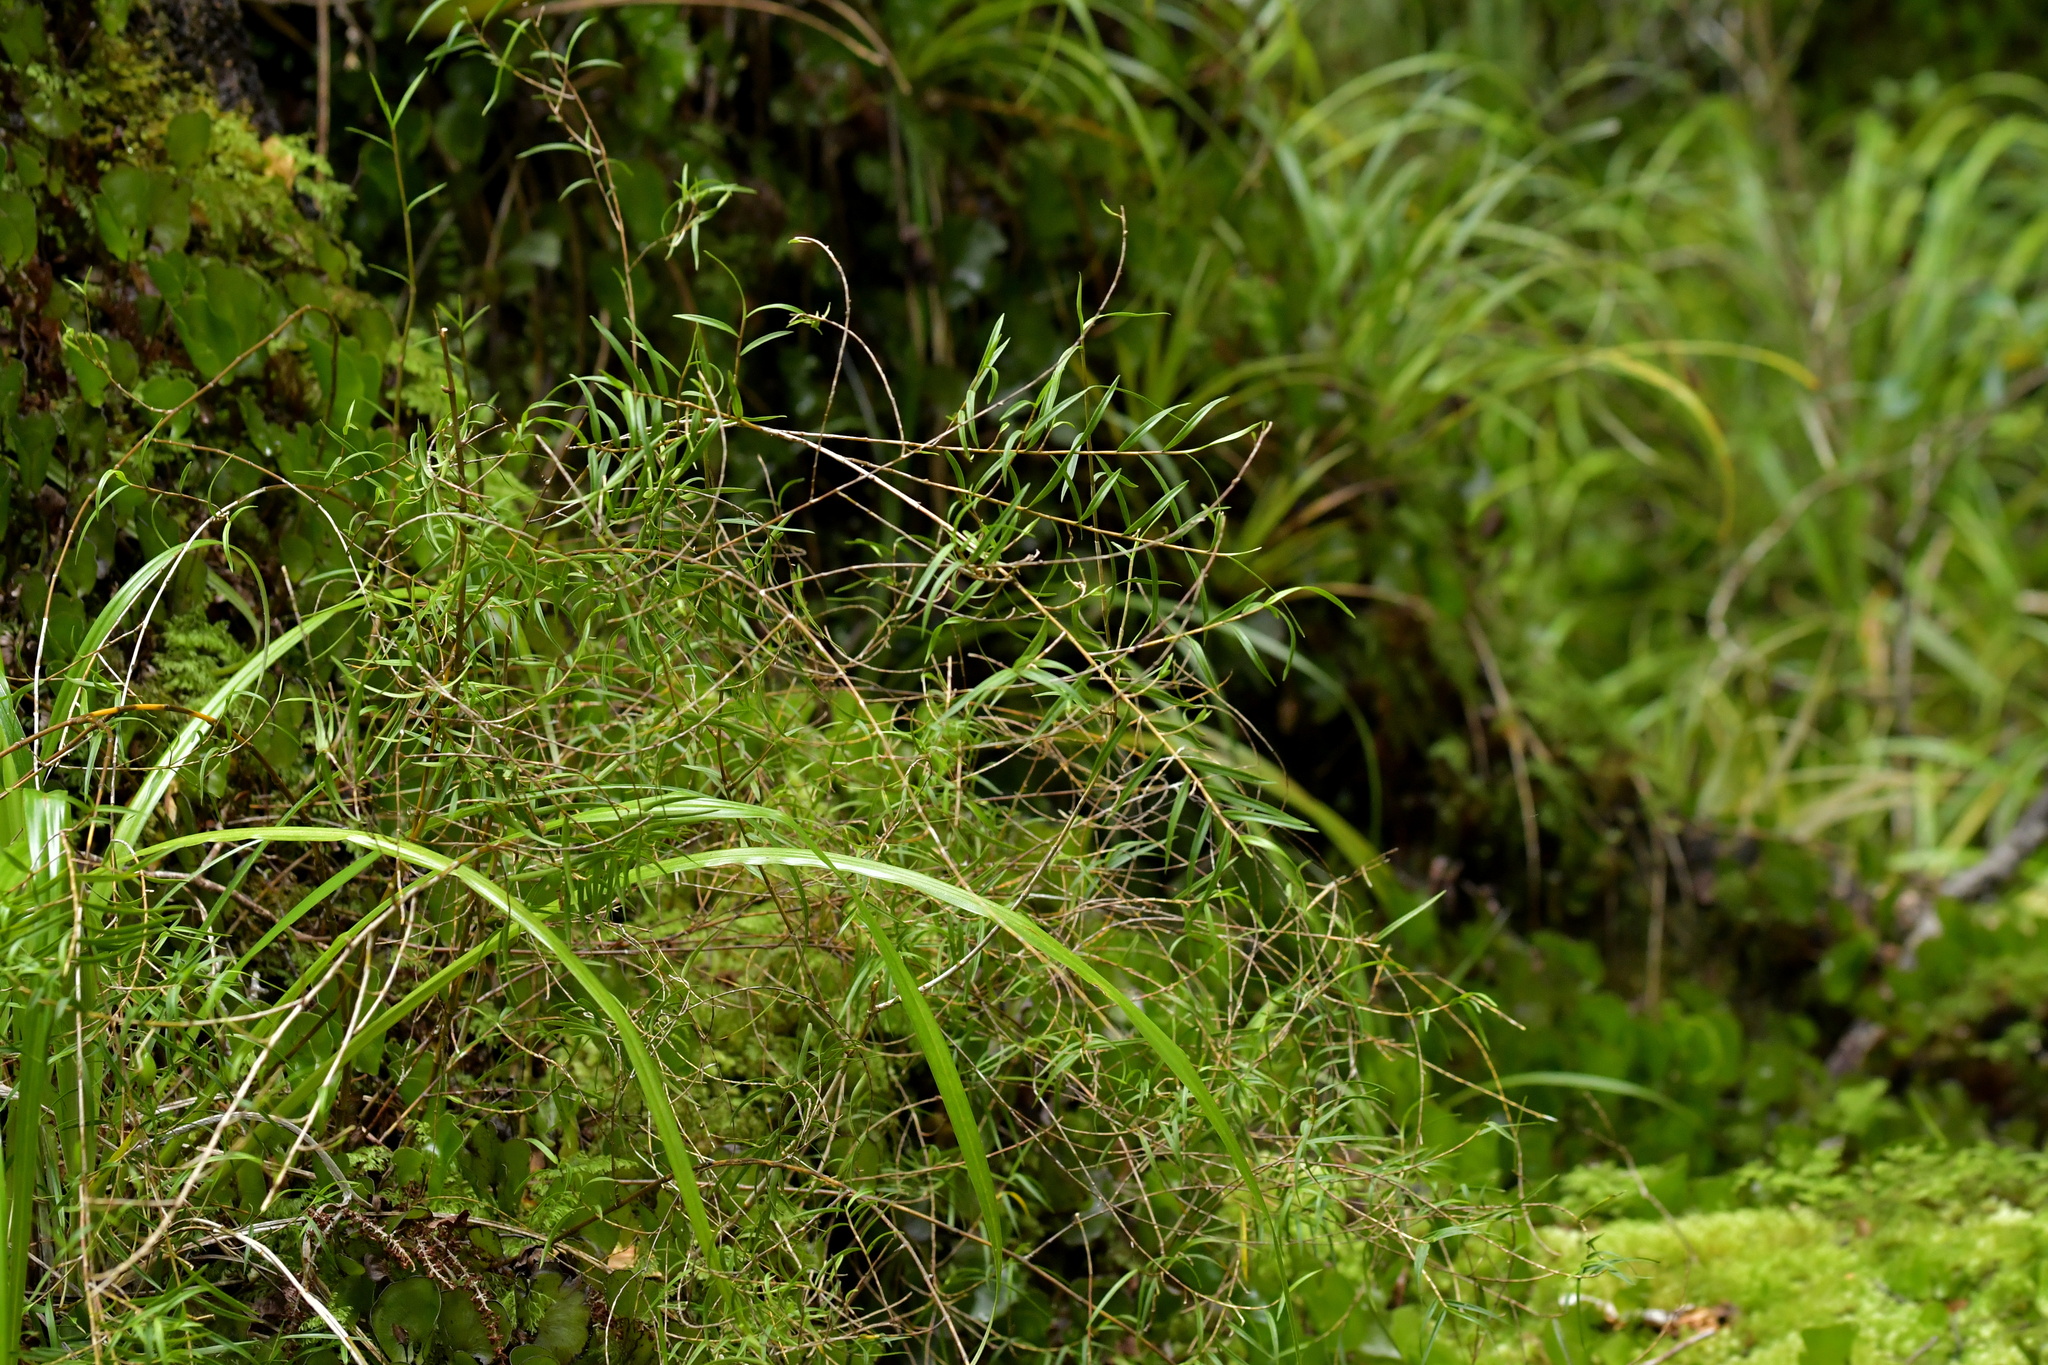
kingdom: Plantae
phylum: Tracheophyta
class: Liliopsida
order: Asparagales
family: Orchidaceae
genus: Dendrobium
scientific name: Dendrobium cunninghamii
